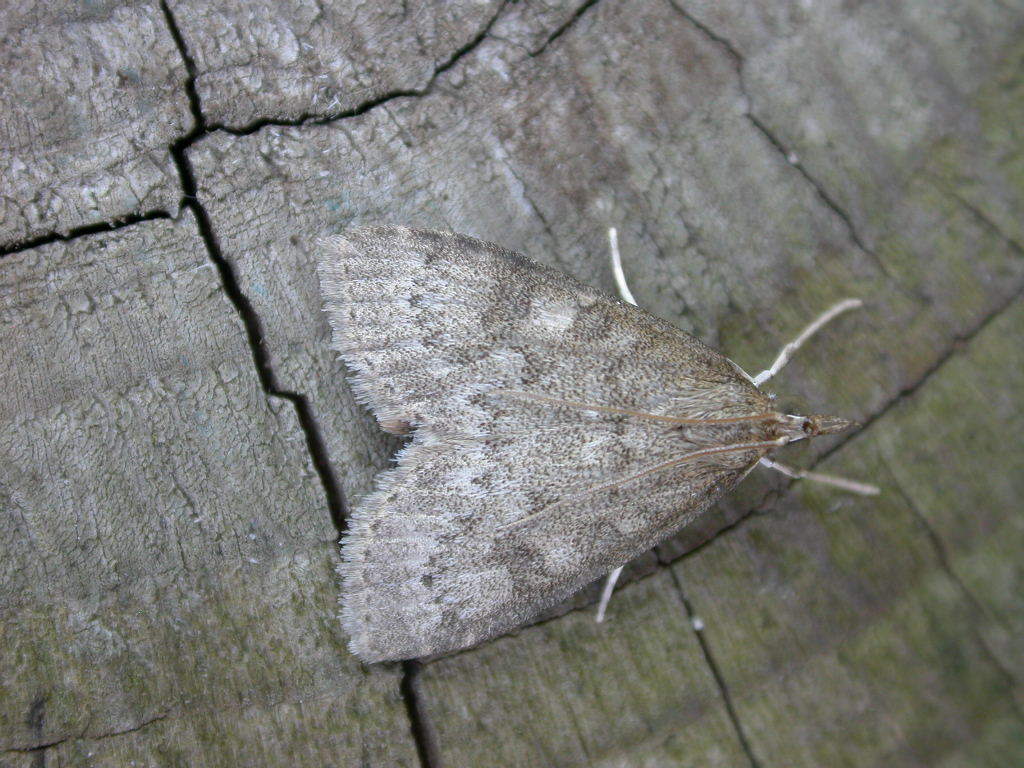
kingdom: Animalia
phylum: Arthropoda
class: Insecta
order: Lepidoptera
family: Crambidae
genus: Udea
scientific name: Udea prunalis
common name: Dusky pearl
